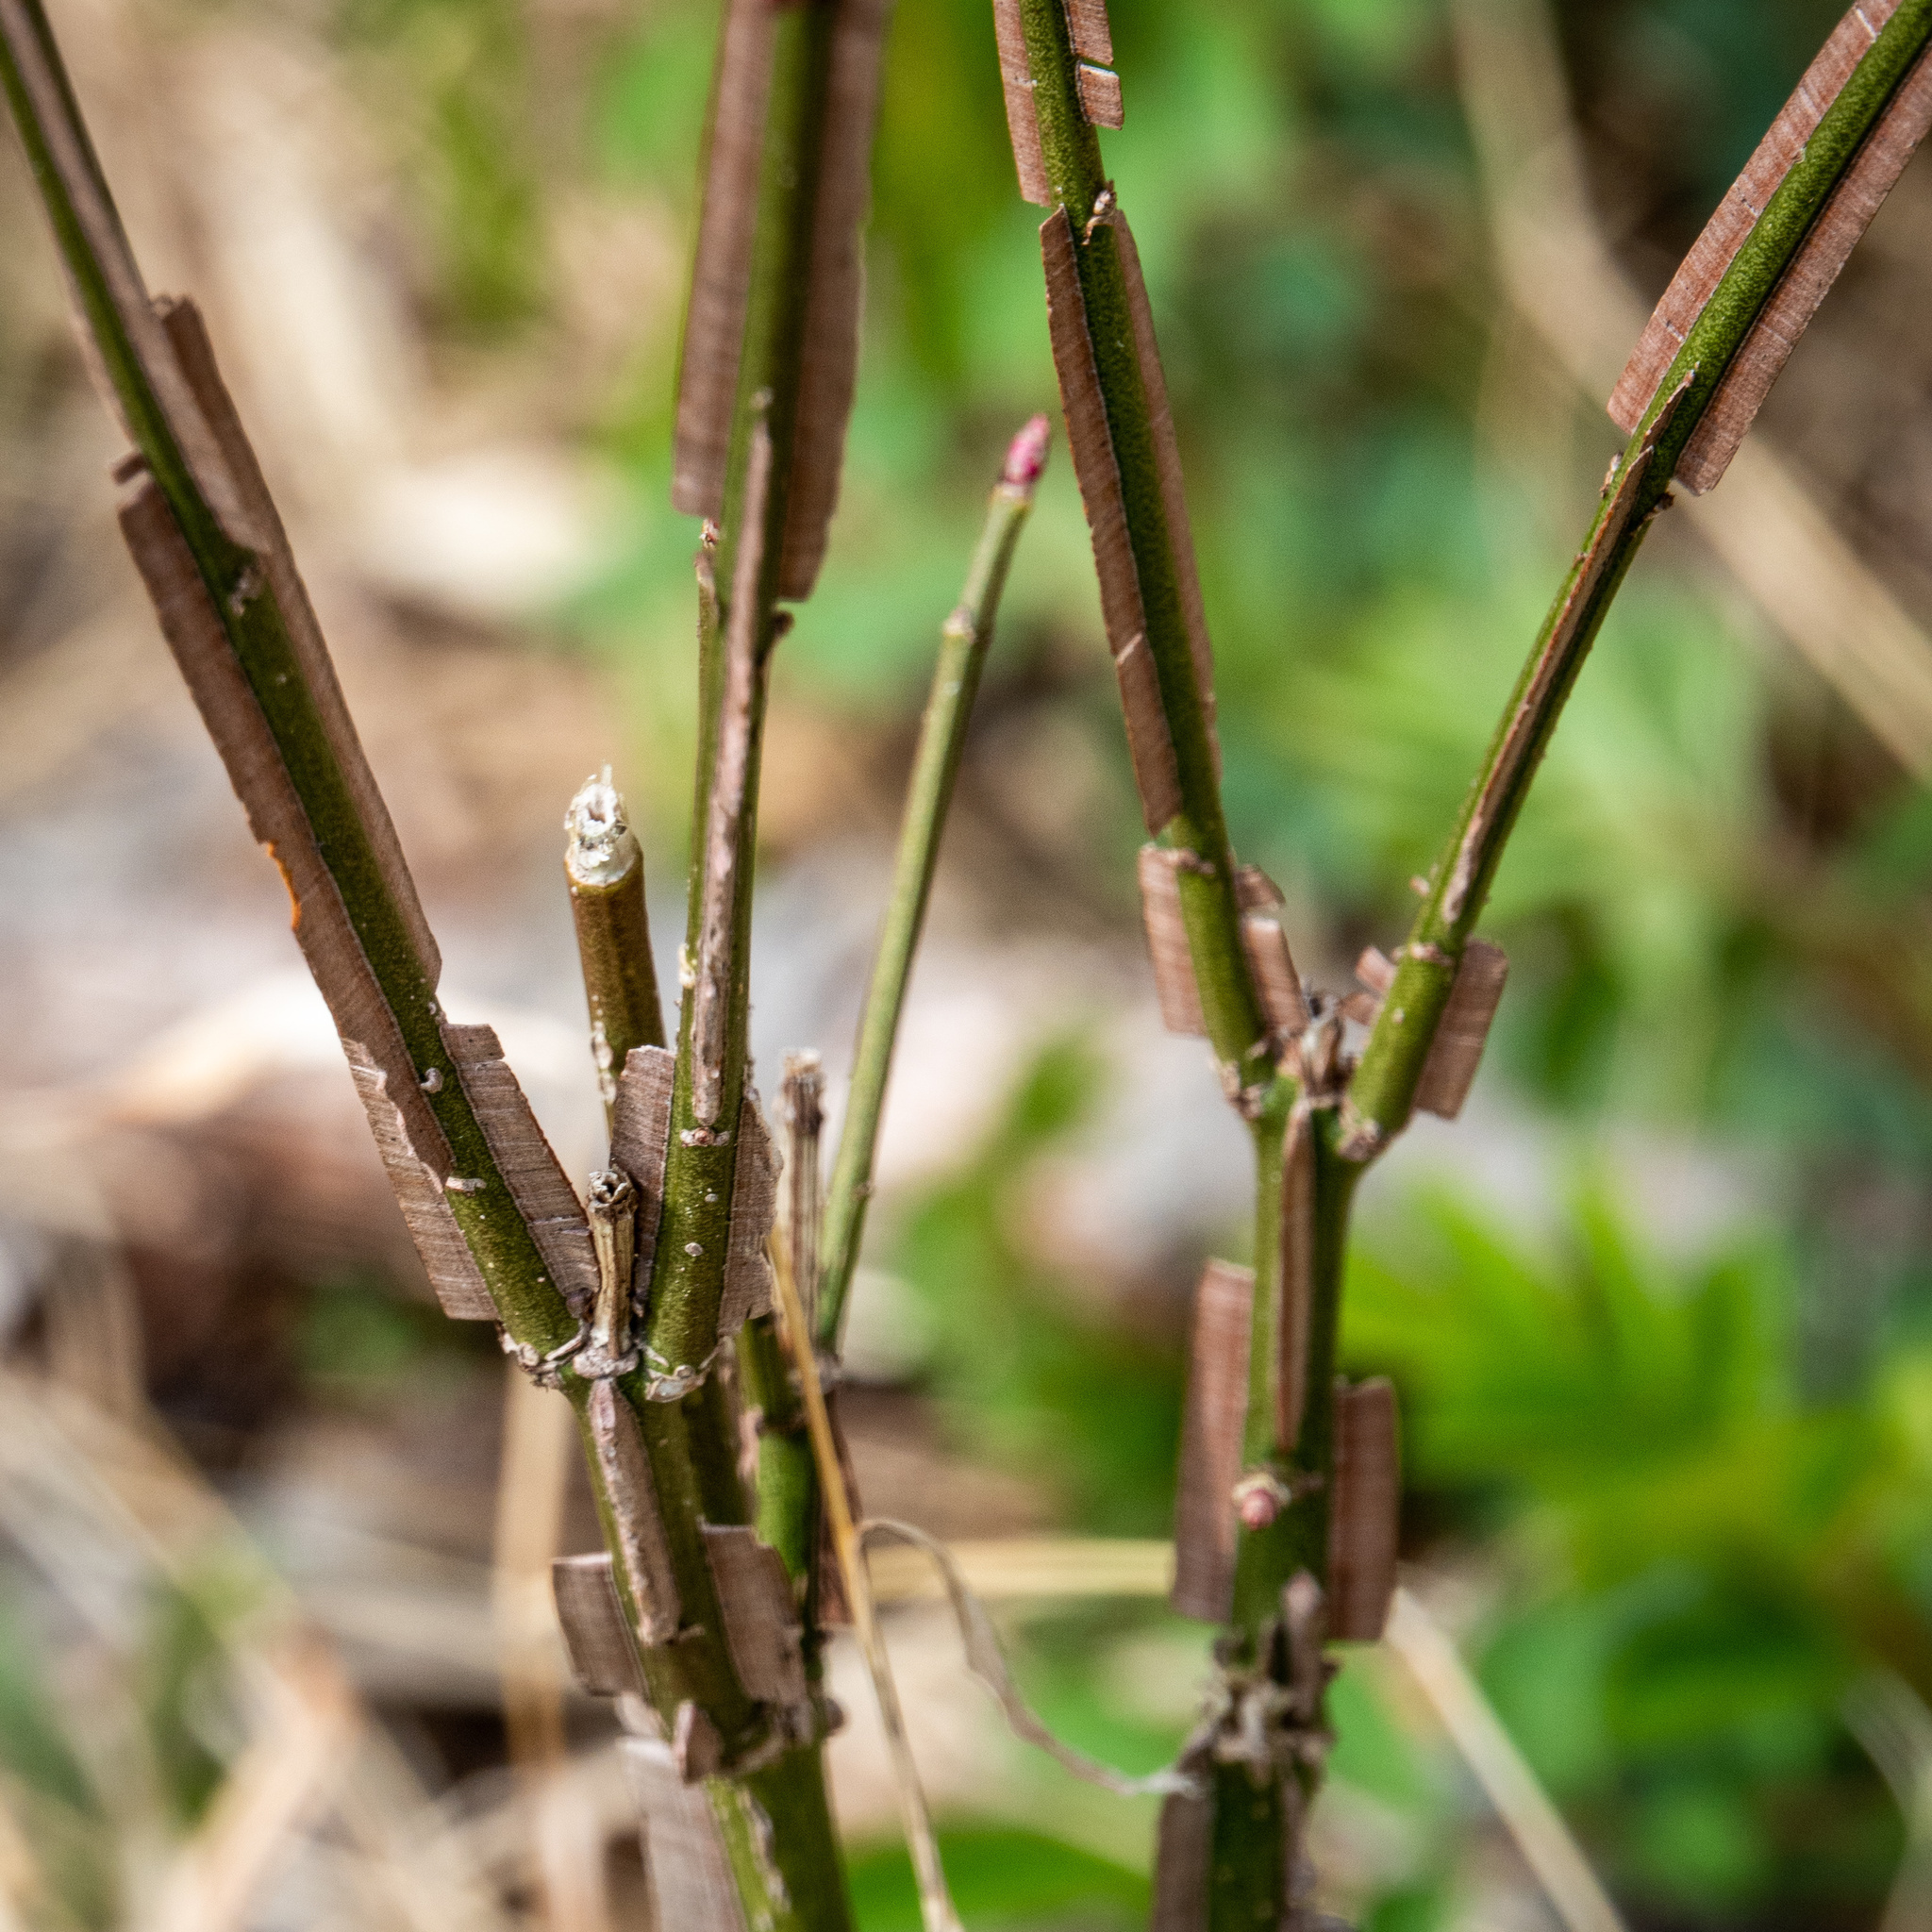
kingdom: Plantae
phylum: Tracheophyta
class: Magnoliopsida
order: Celastrales
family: Celastraceae
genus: Euonymus
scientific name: Euonymus alatus
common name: Winged euonymus
